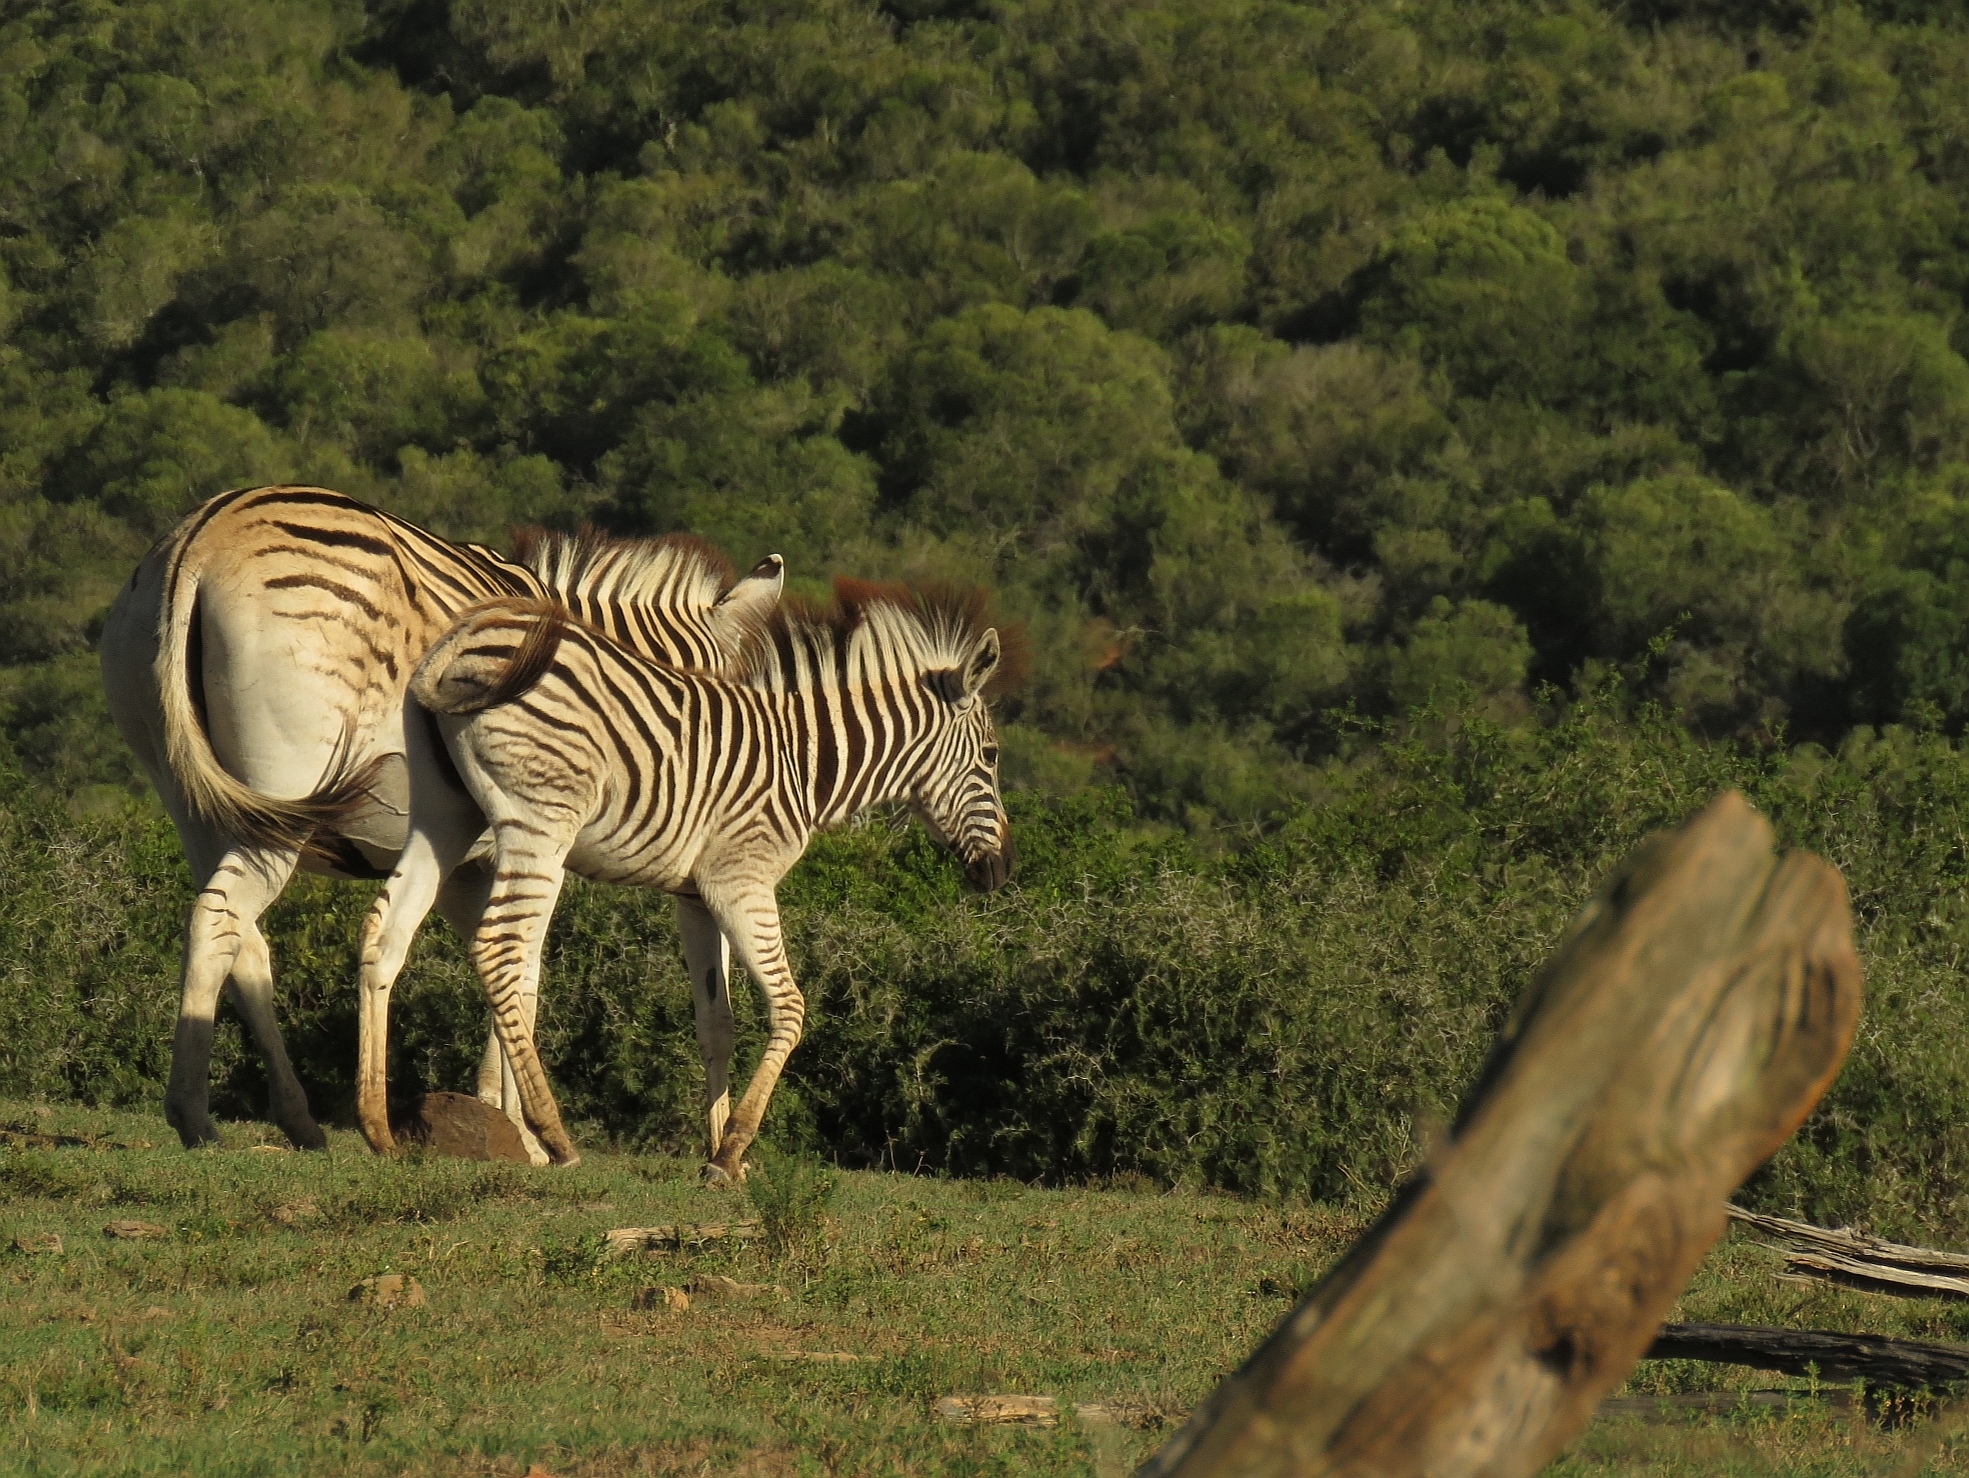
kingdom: Animalia
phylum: Chordata
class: Mammalia
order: Perissodactyla
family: Equidae
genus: Equus
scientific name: Equus quagga
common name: Plains zebra
